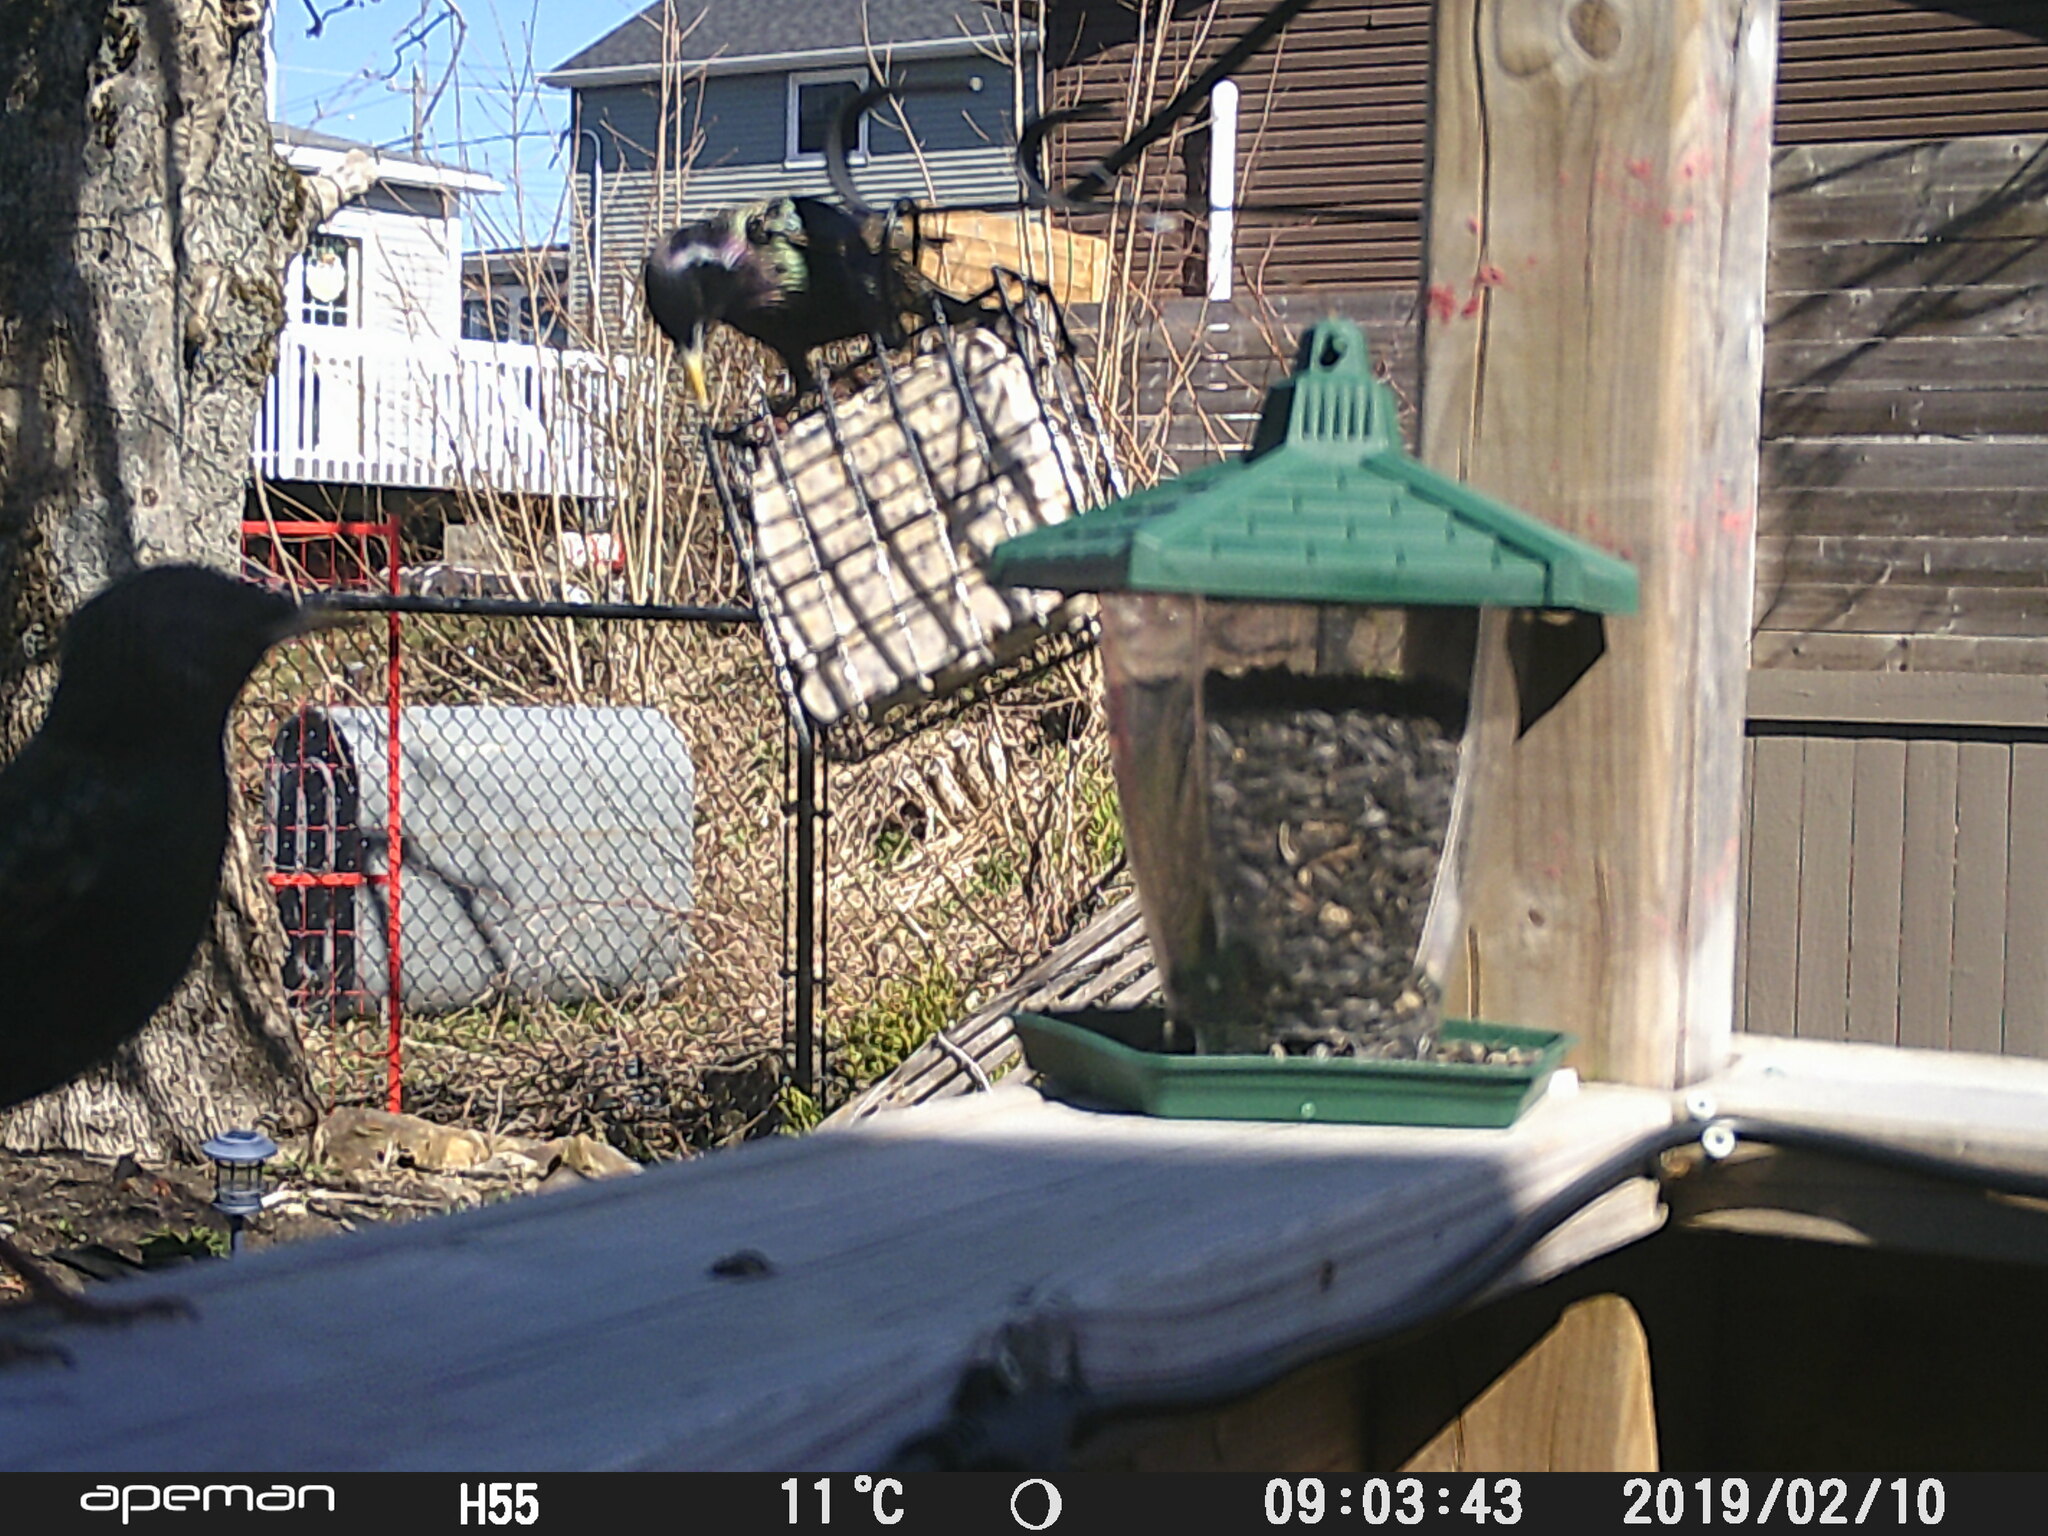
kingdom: Animalia
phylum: Chordata
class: Aves
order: Passeriformes
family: Sturnidae
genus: Sturnus
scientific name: Sturnus vulgaris
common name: Common starling
